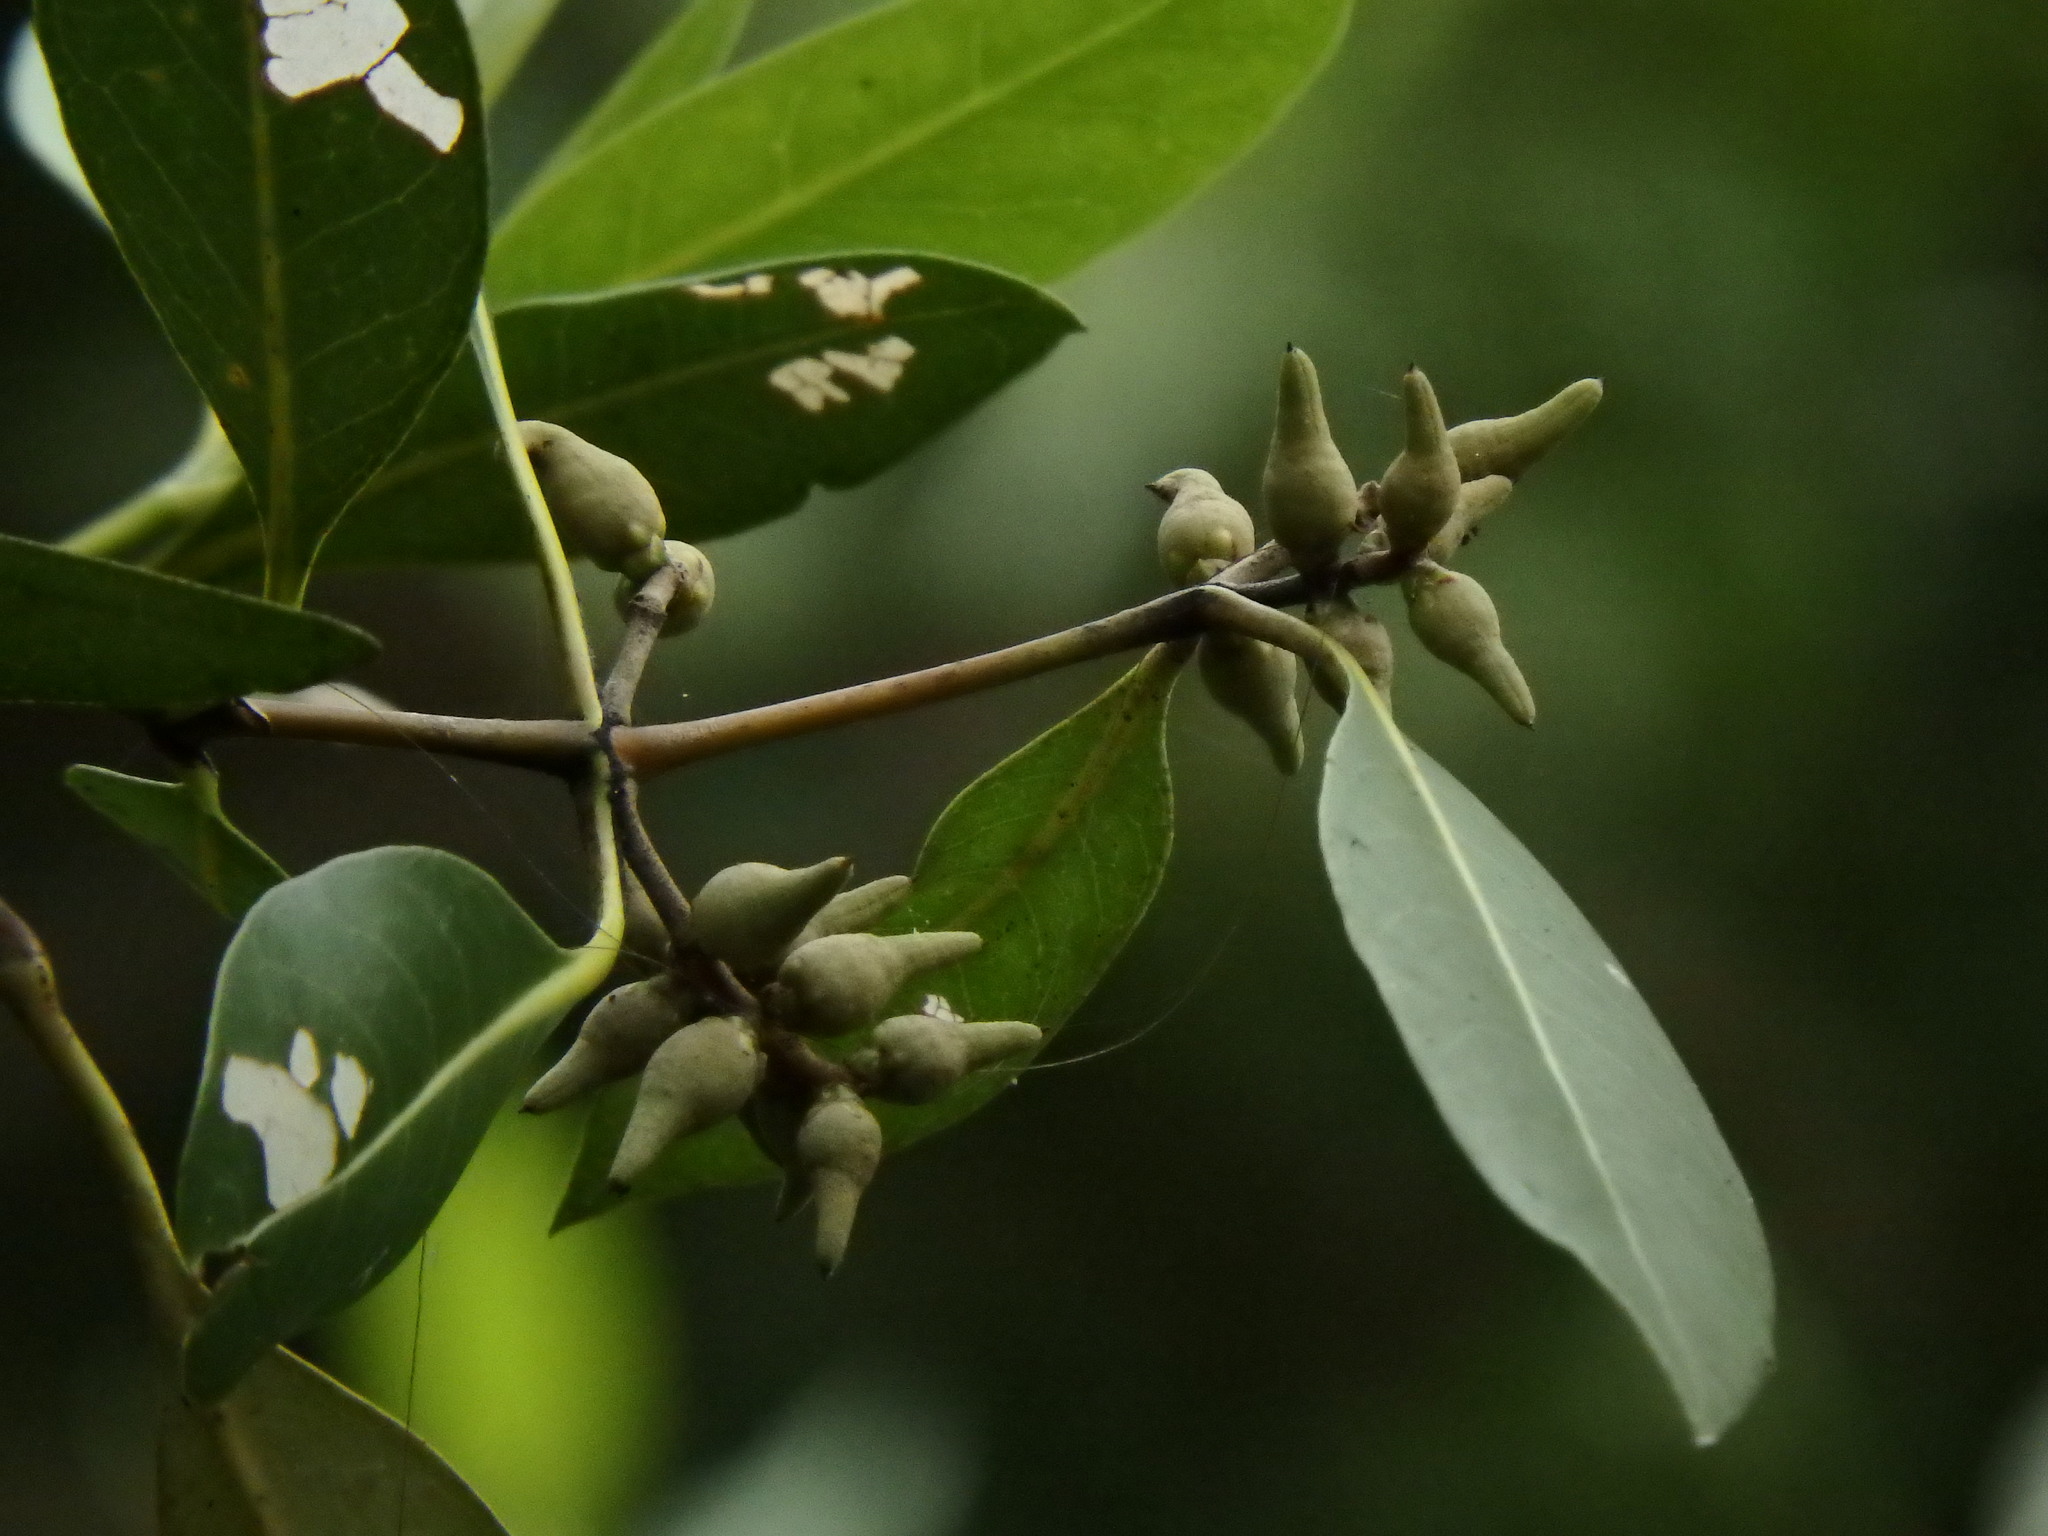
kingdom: Plantae
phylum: Tracheophyta
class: Magnoliopsida
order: Lamiales
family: Acanthaceae
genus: Avicennia
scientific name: Avicennia alba
